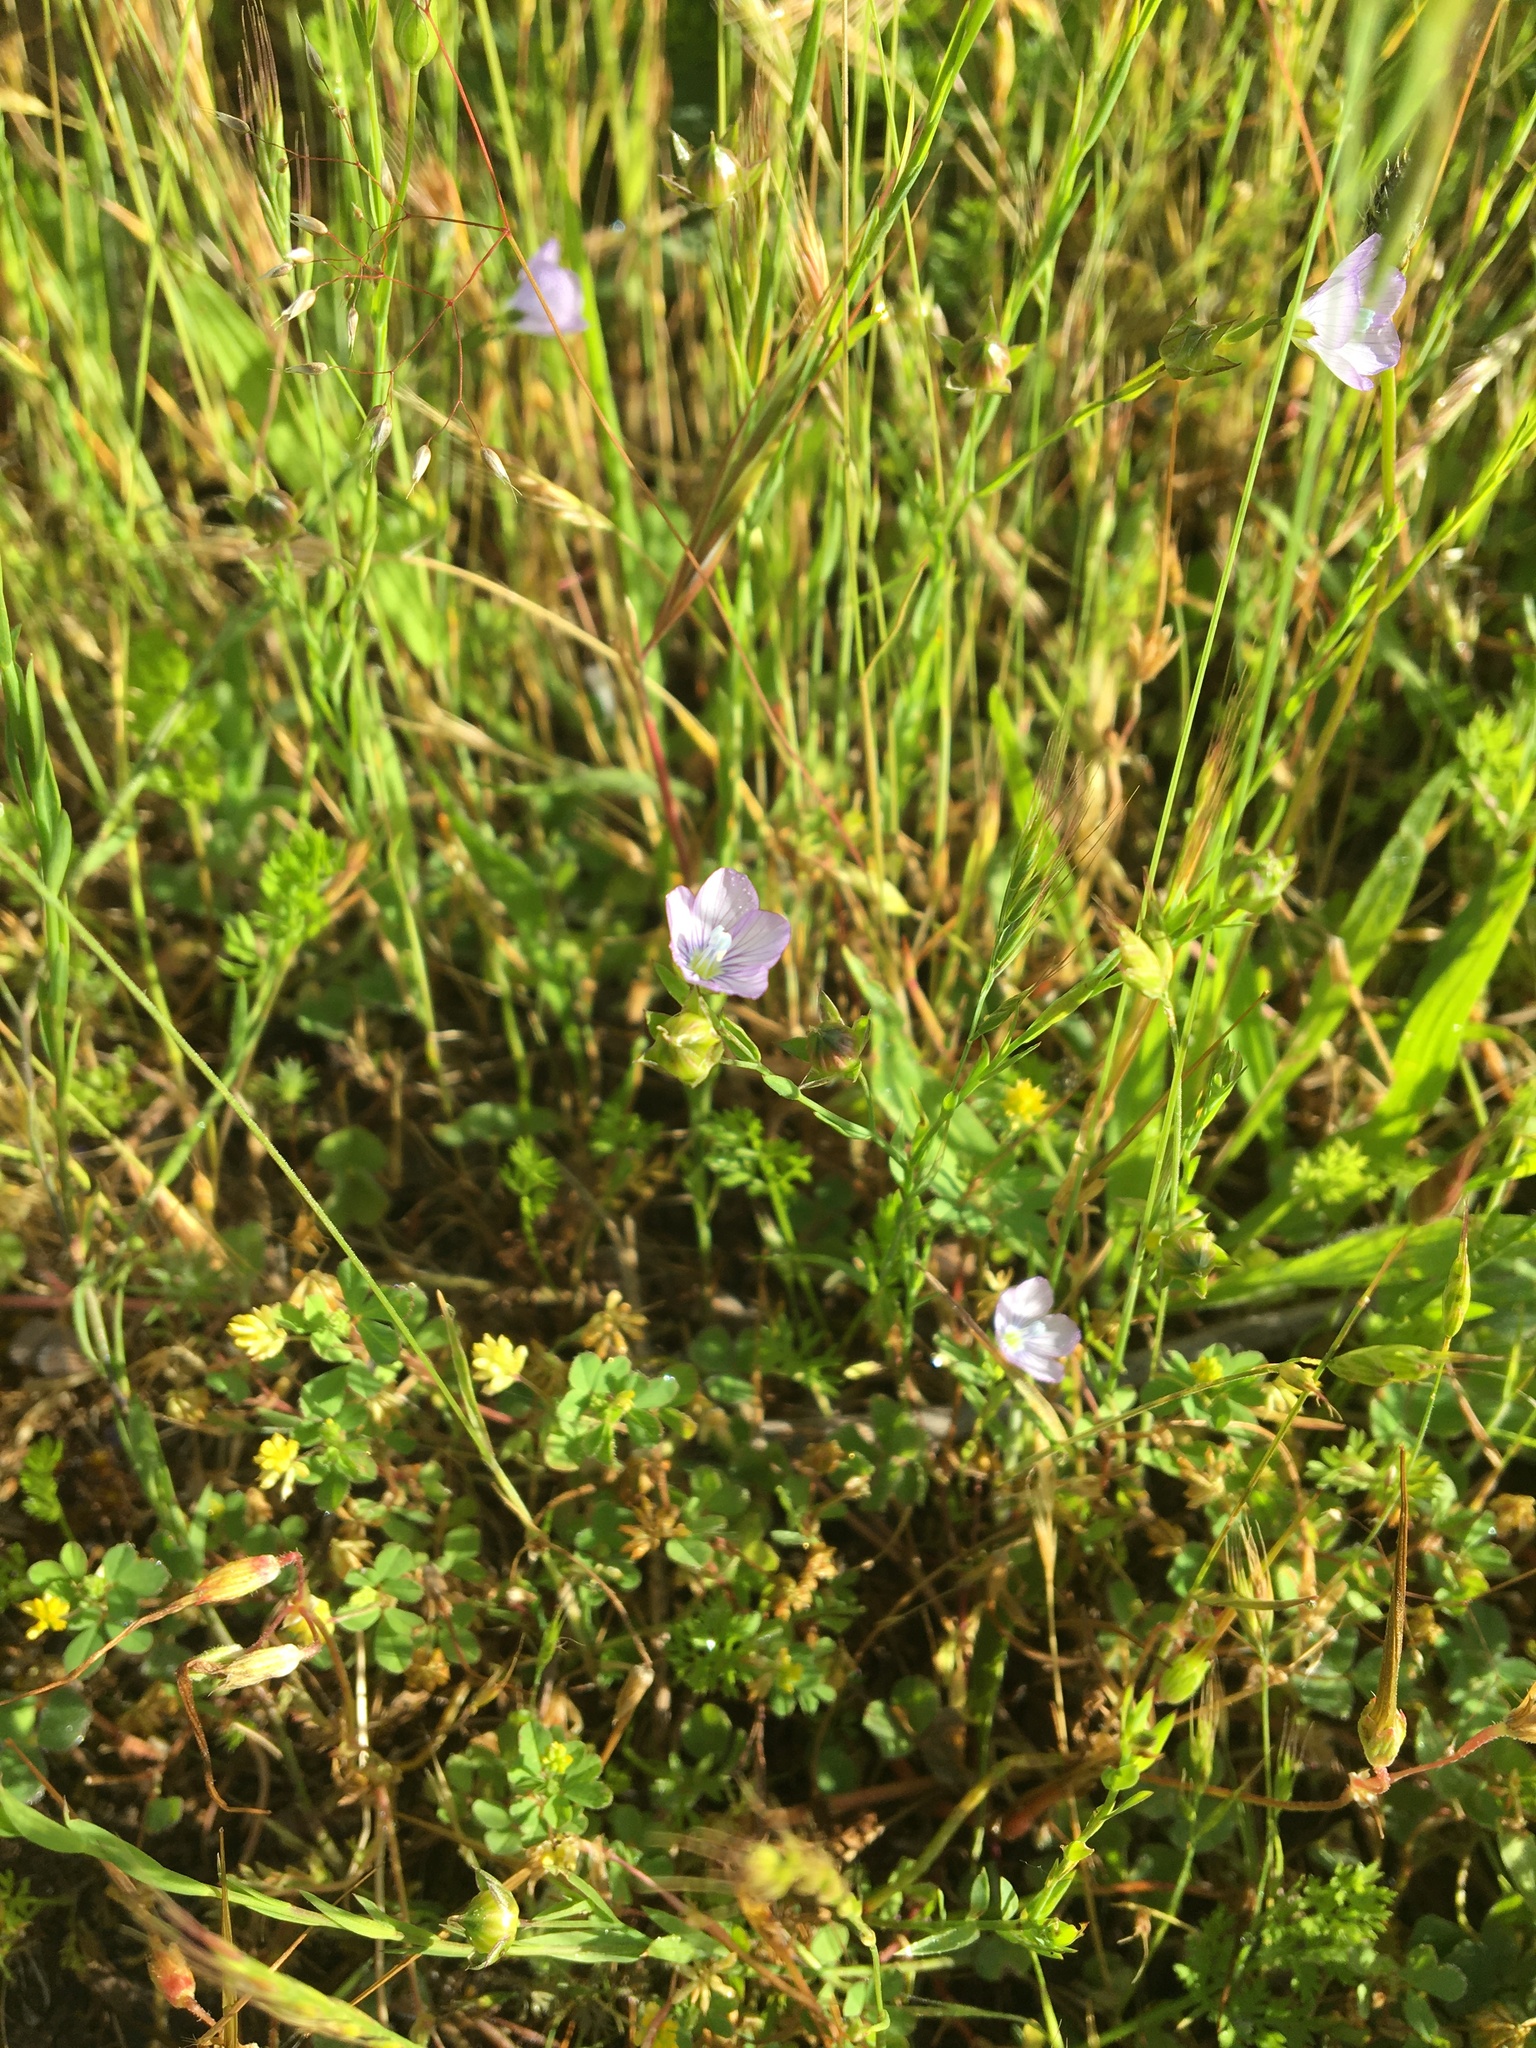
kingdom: Plantae
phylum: Tracheophyta
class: Magnoliopsida
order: Malpighiales
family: Linaceae
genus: Linum
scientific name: Linum bienne
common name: Pale flax
